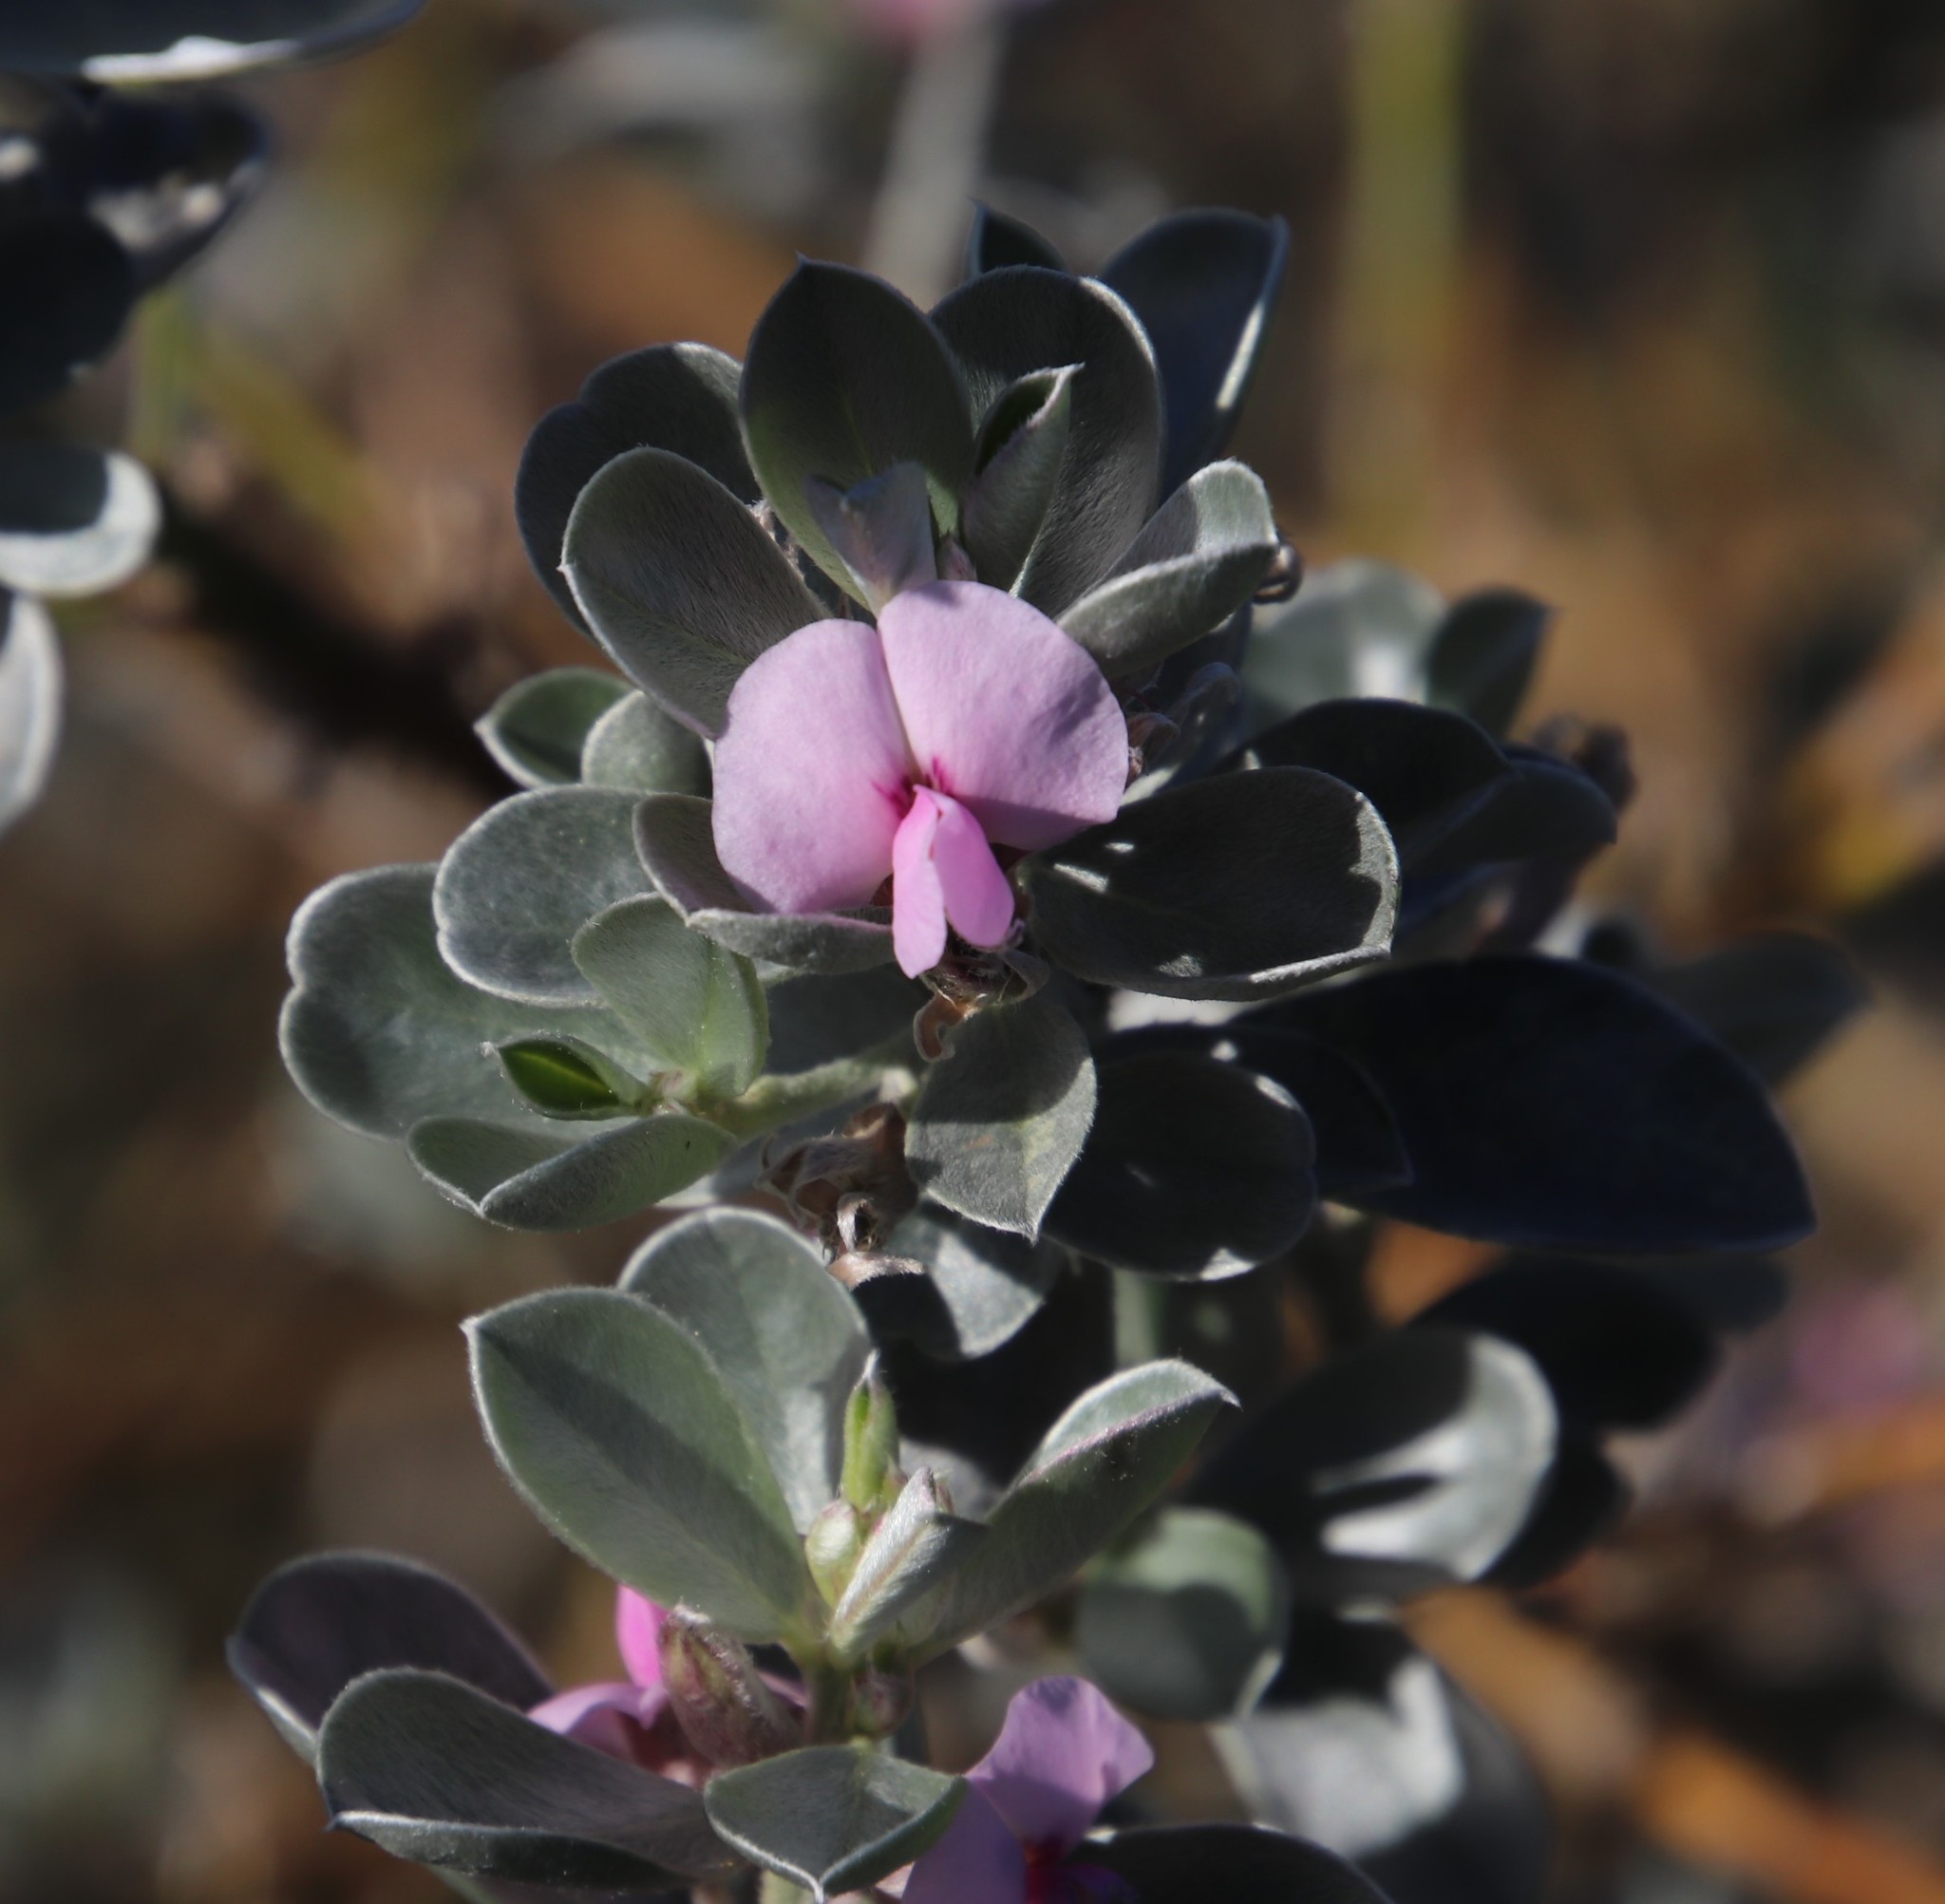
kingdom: Plantae
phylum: Tracheophyta
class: Magnoliopsida
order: Fabales
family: Fabaceae
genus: Podalyria
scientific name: Podalyria sericea
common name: Silver podalyria
